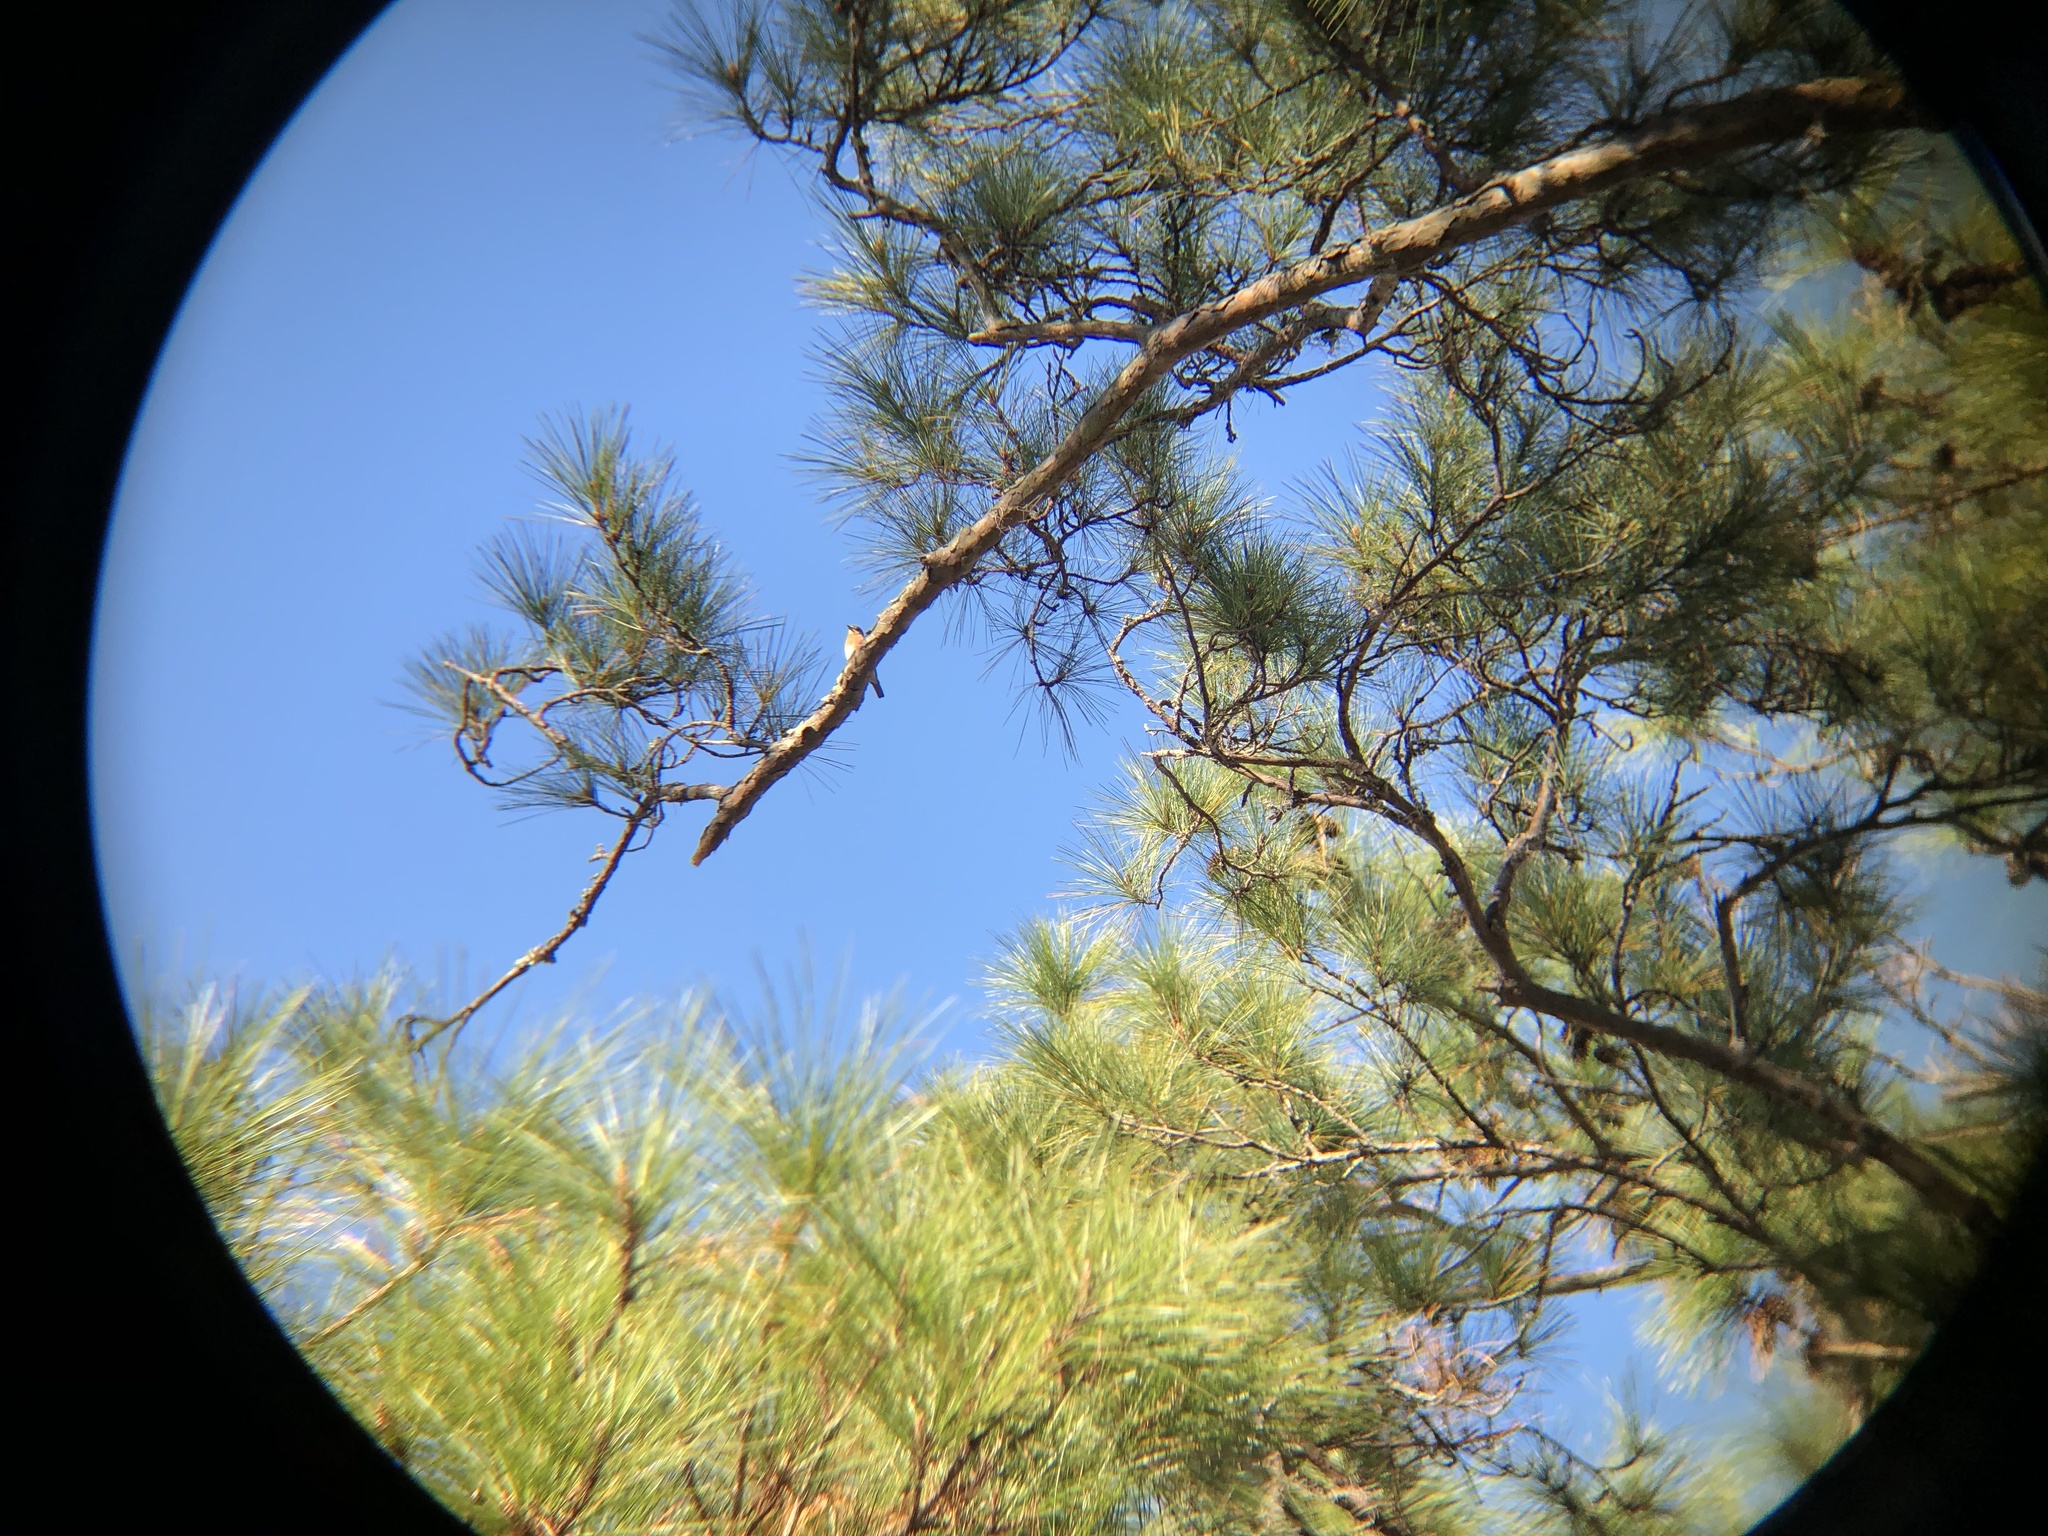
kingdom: Animalia
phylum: Chordata
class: Aves
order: Passeriformes
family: Turdidae
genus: Sialia
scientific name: Sialia sialis
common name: Eastern bluebird
